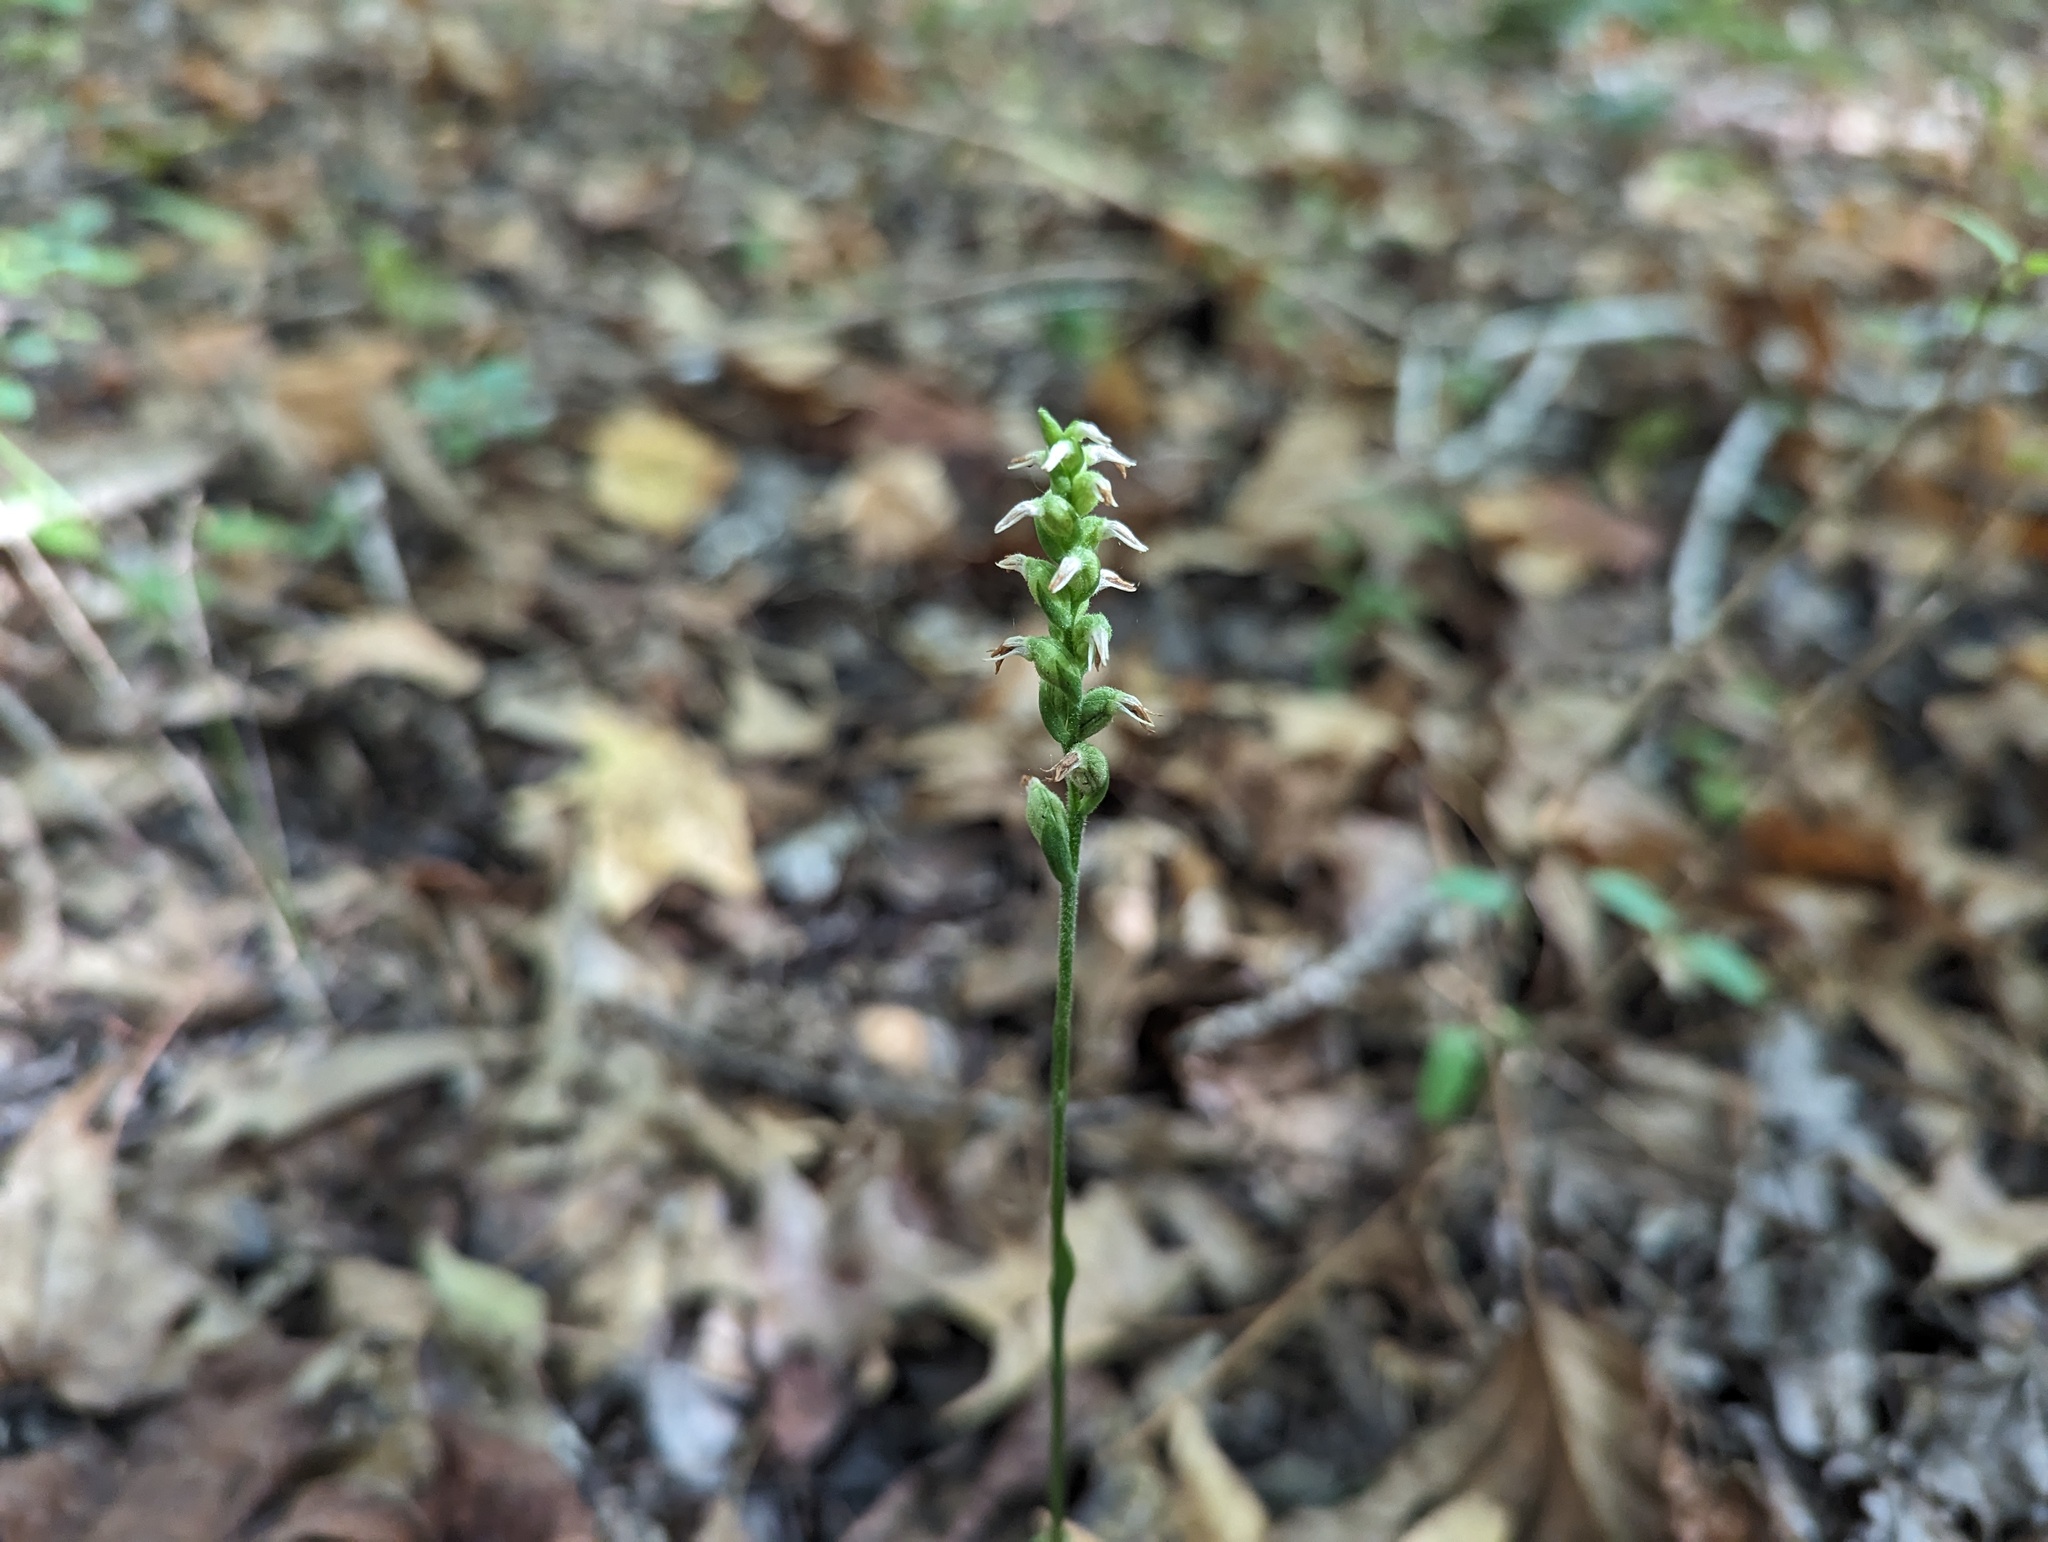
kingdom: Plantae
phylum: Tracheophyta
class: Liliopsida
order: Asparagales
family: Orchidaceae
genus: Spiranthes
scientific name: Spiranthes ovalis
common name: October ladies'-tresses
